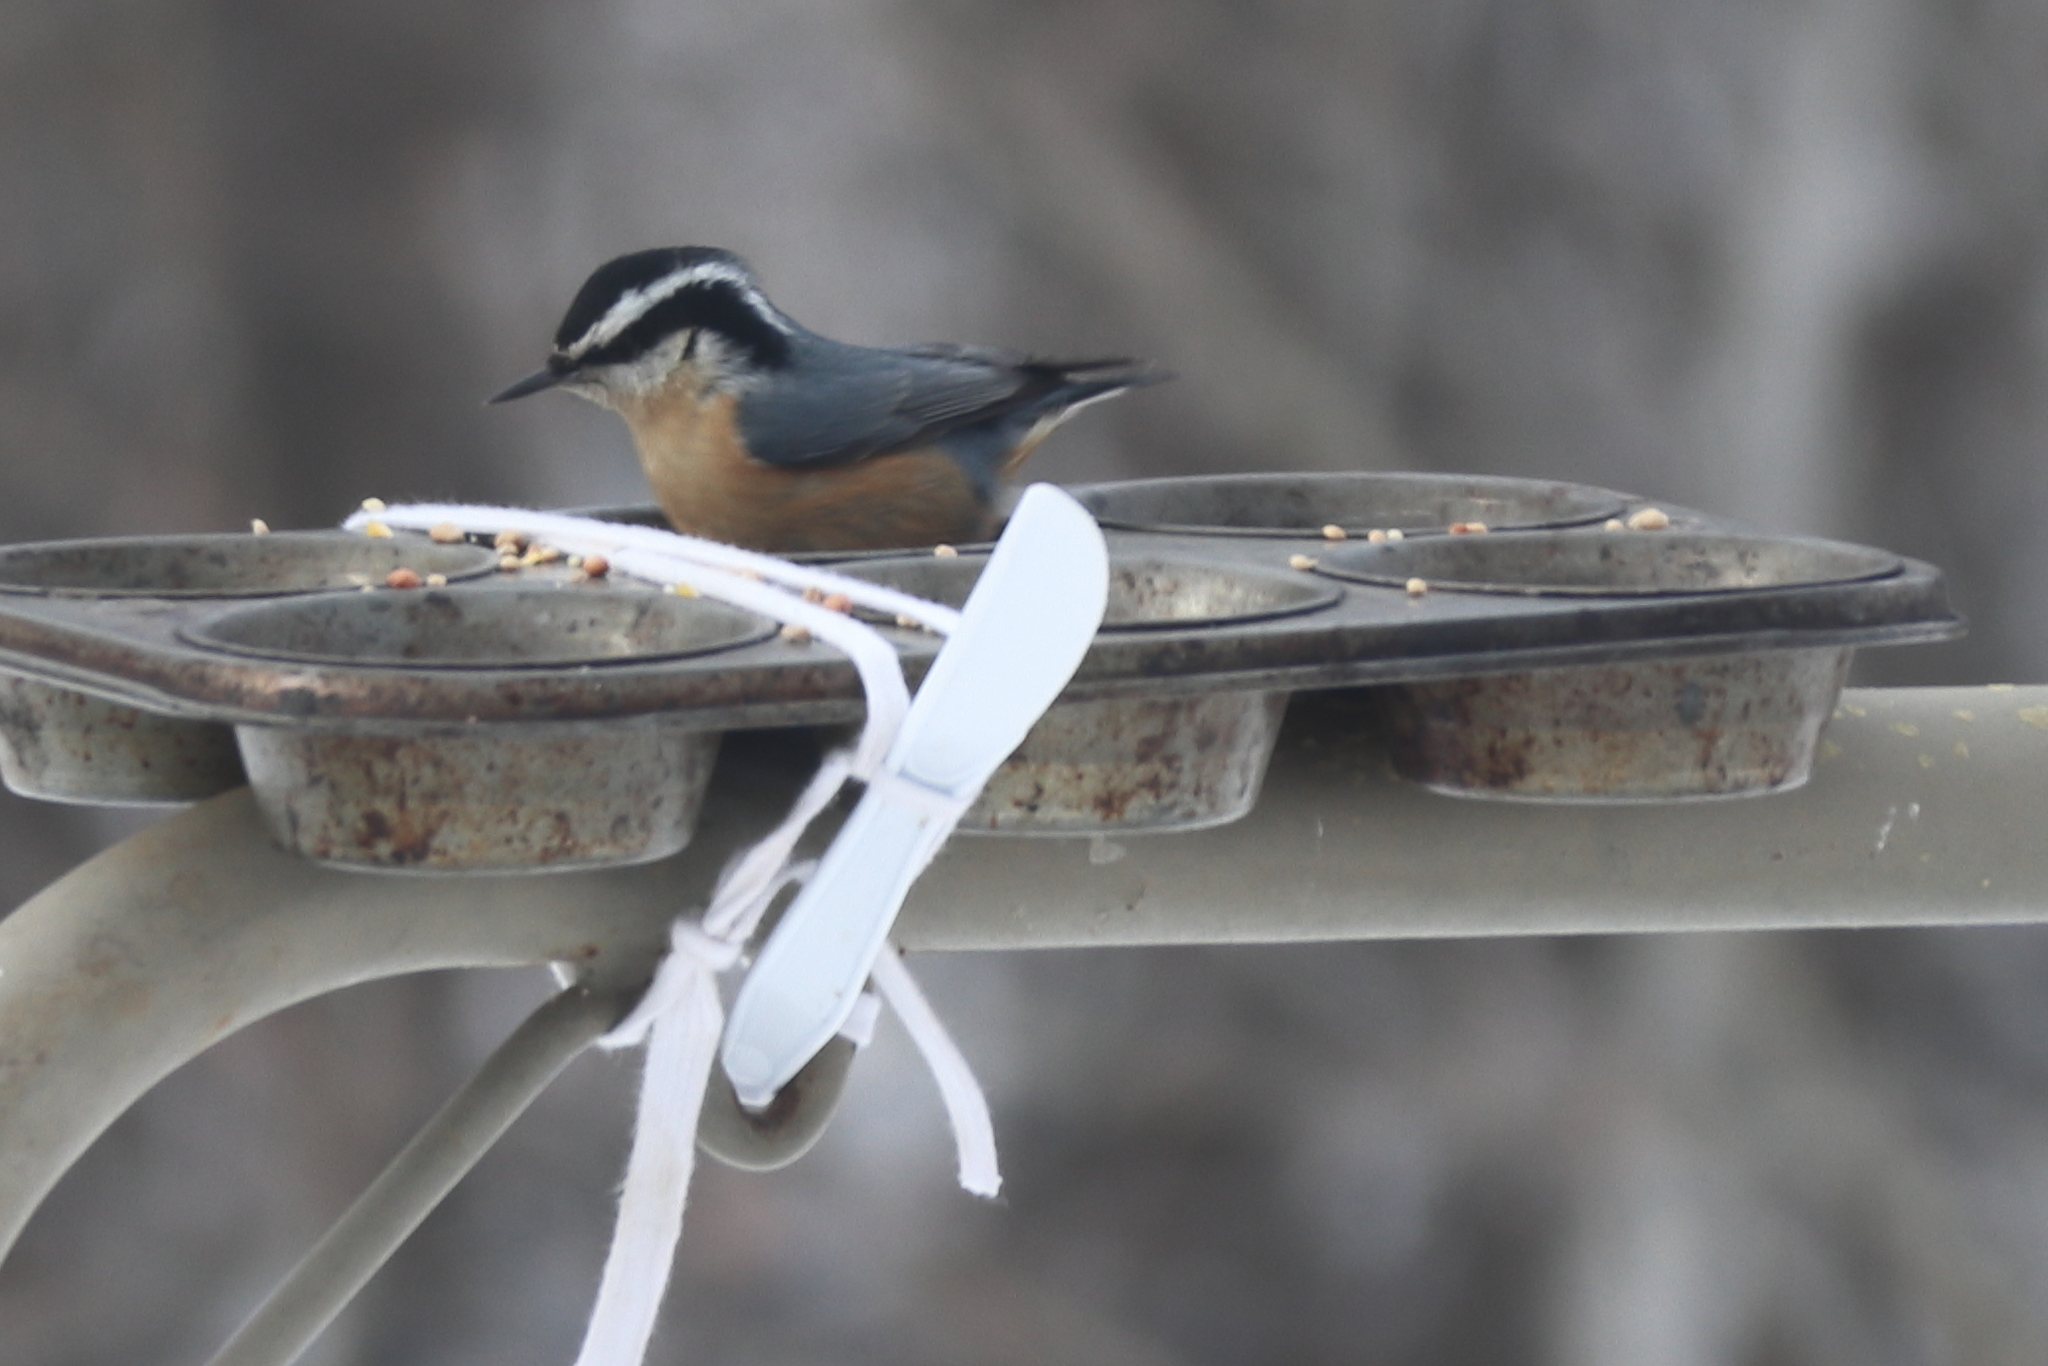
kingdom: Animalia
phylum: Chordata
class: Aves
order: Passeriformes
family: Sittidae
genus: Sitta
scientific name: Sitta canadensis
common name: Red-breasted nuthatch
